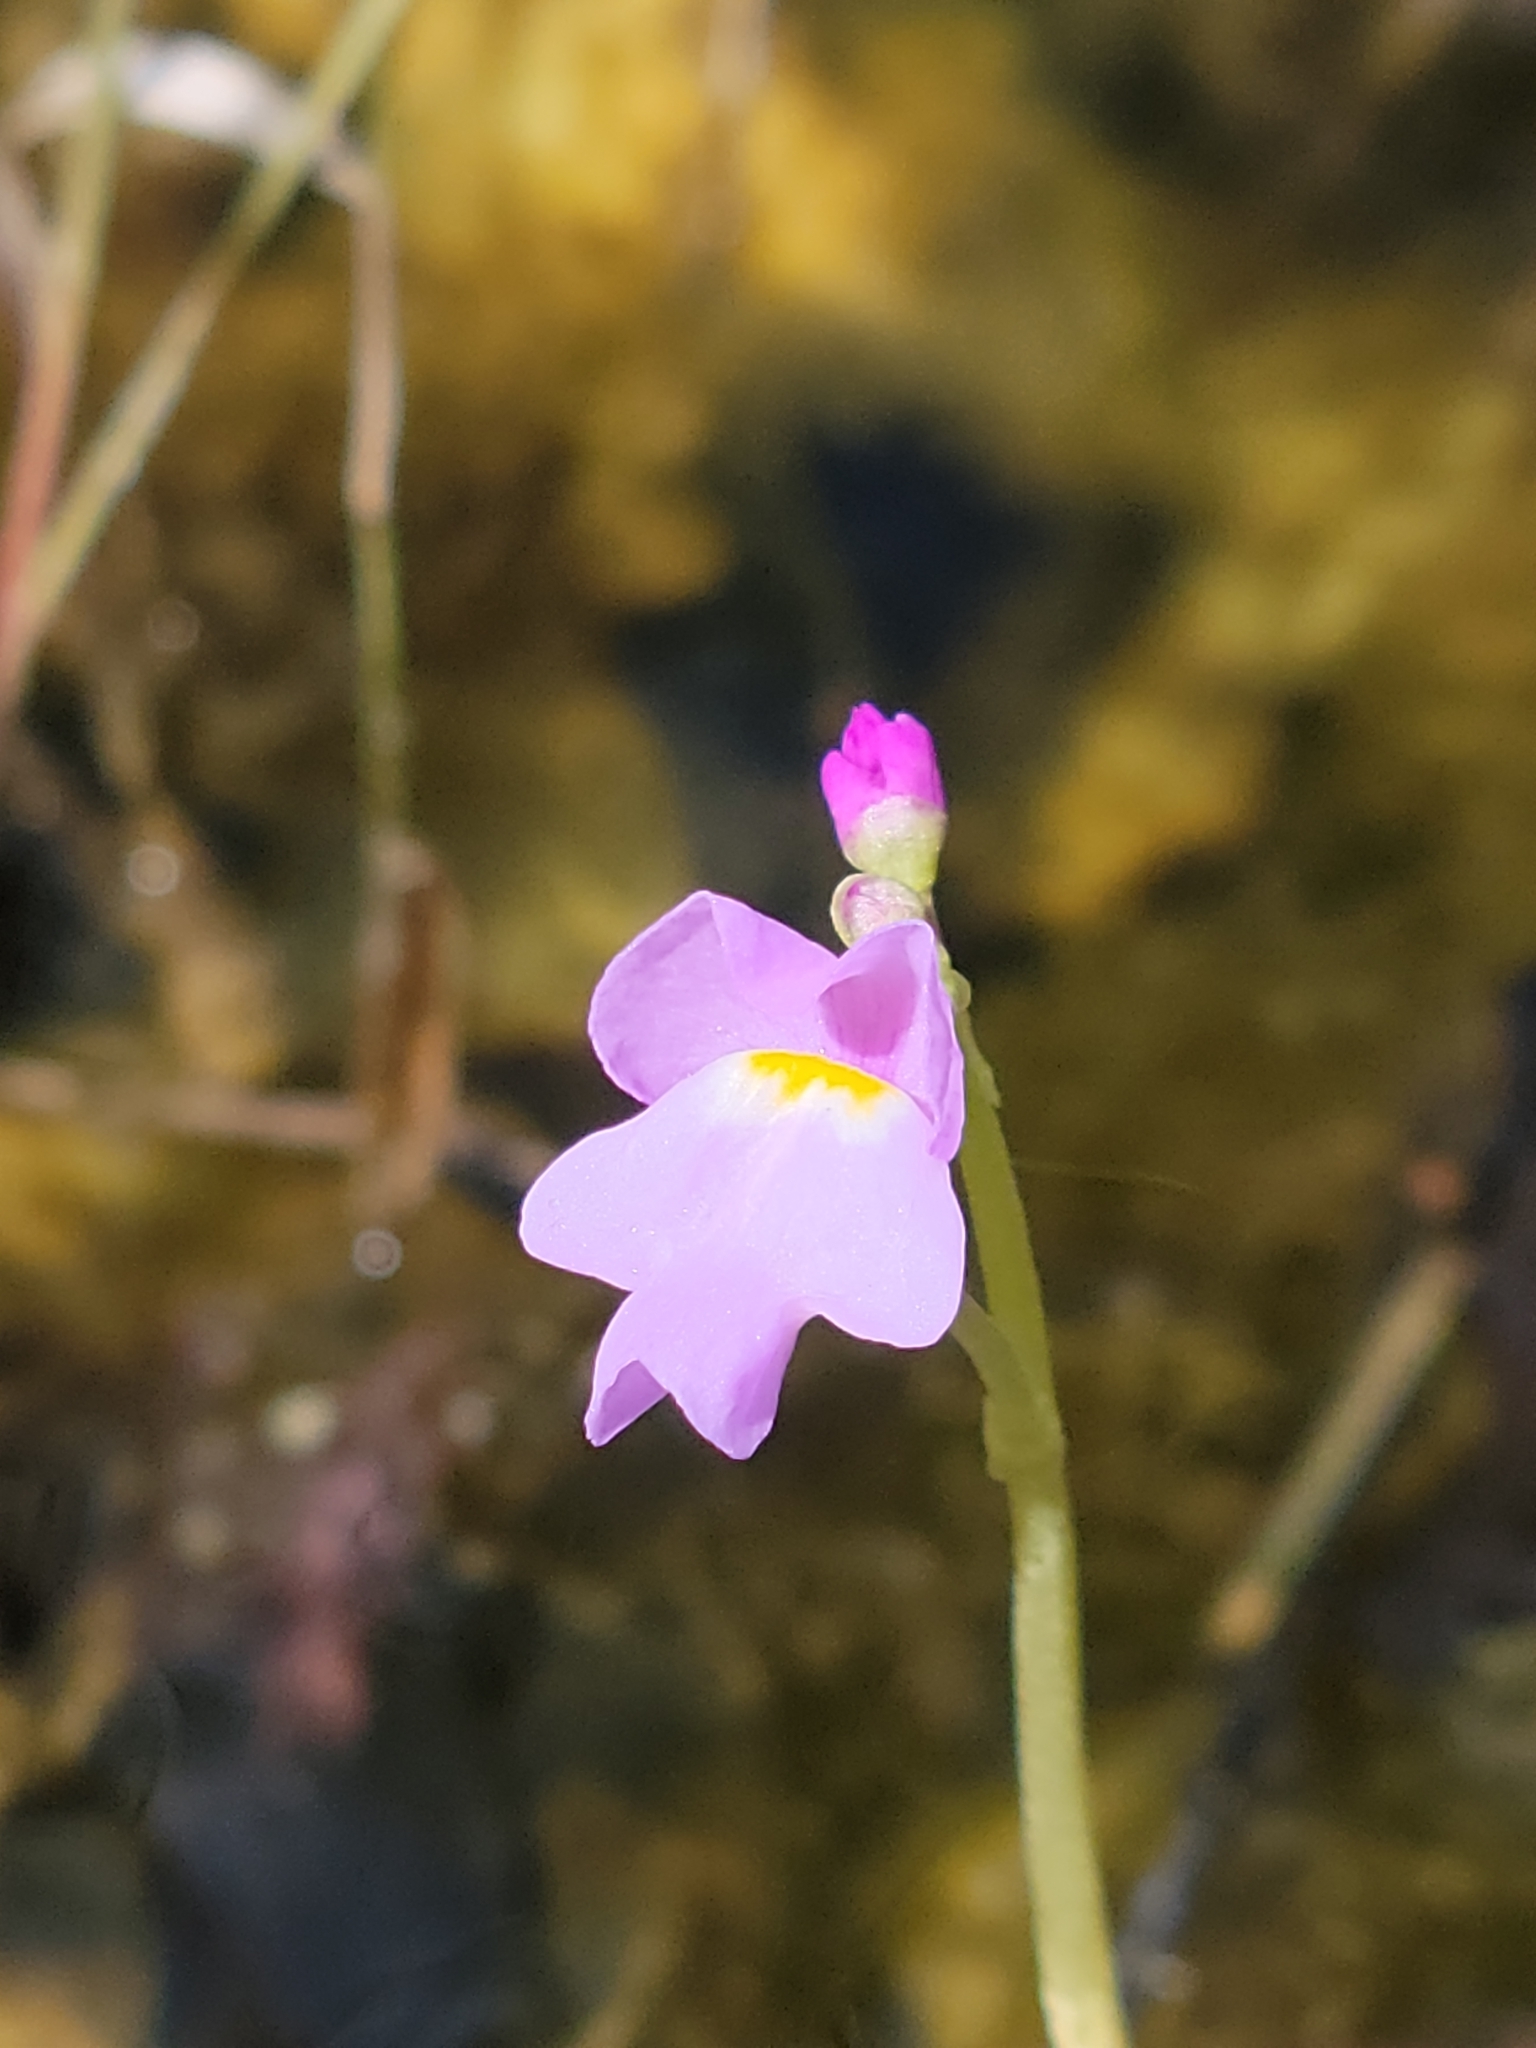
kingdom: Plantae
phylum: Tracheophyta
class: Magnoliopsida
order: Lamiales
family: Lentibulariaceae
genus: Utricularia
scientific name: Utricularia purpurea
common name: Eastern purple bladderwort
